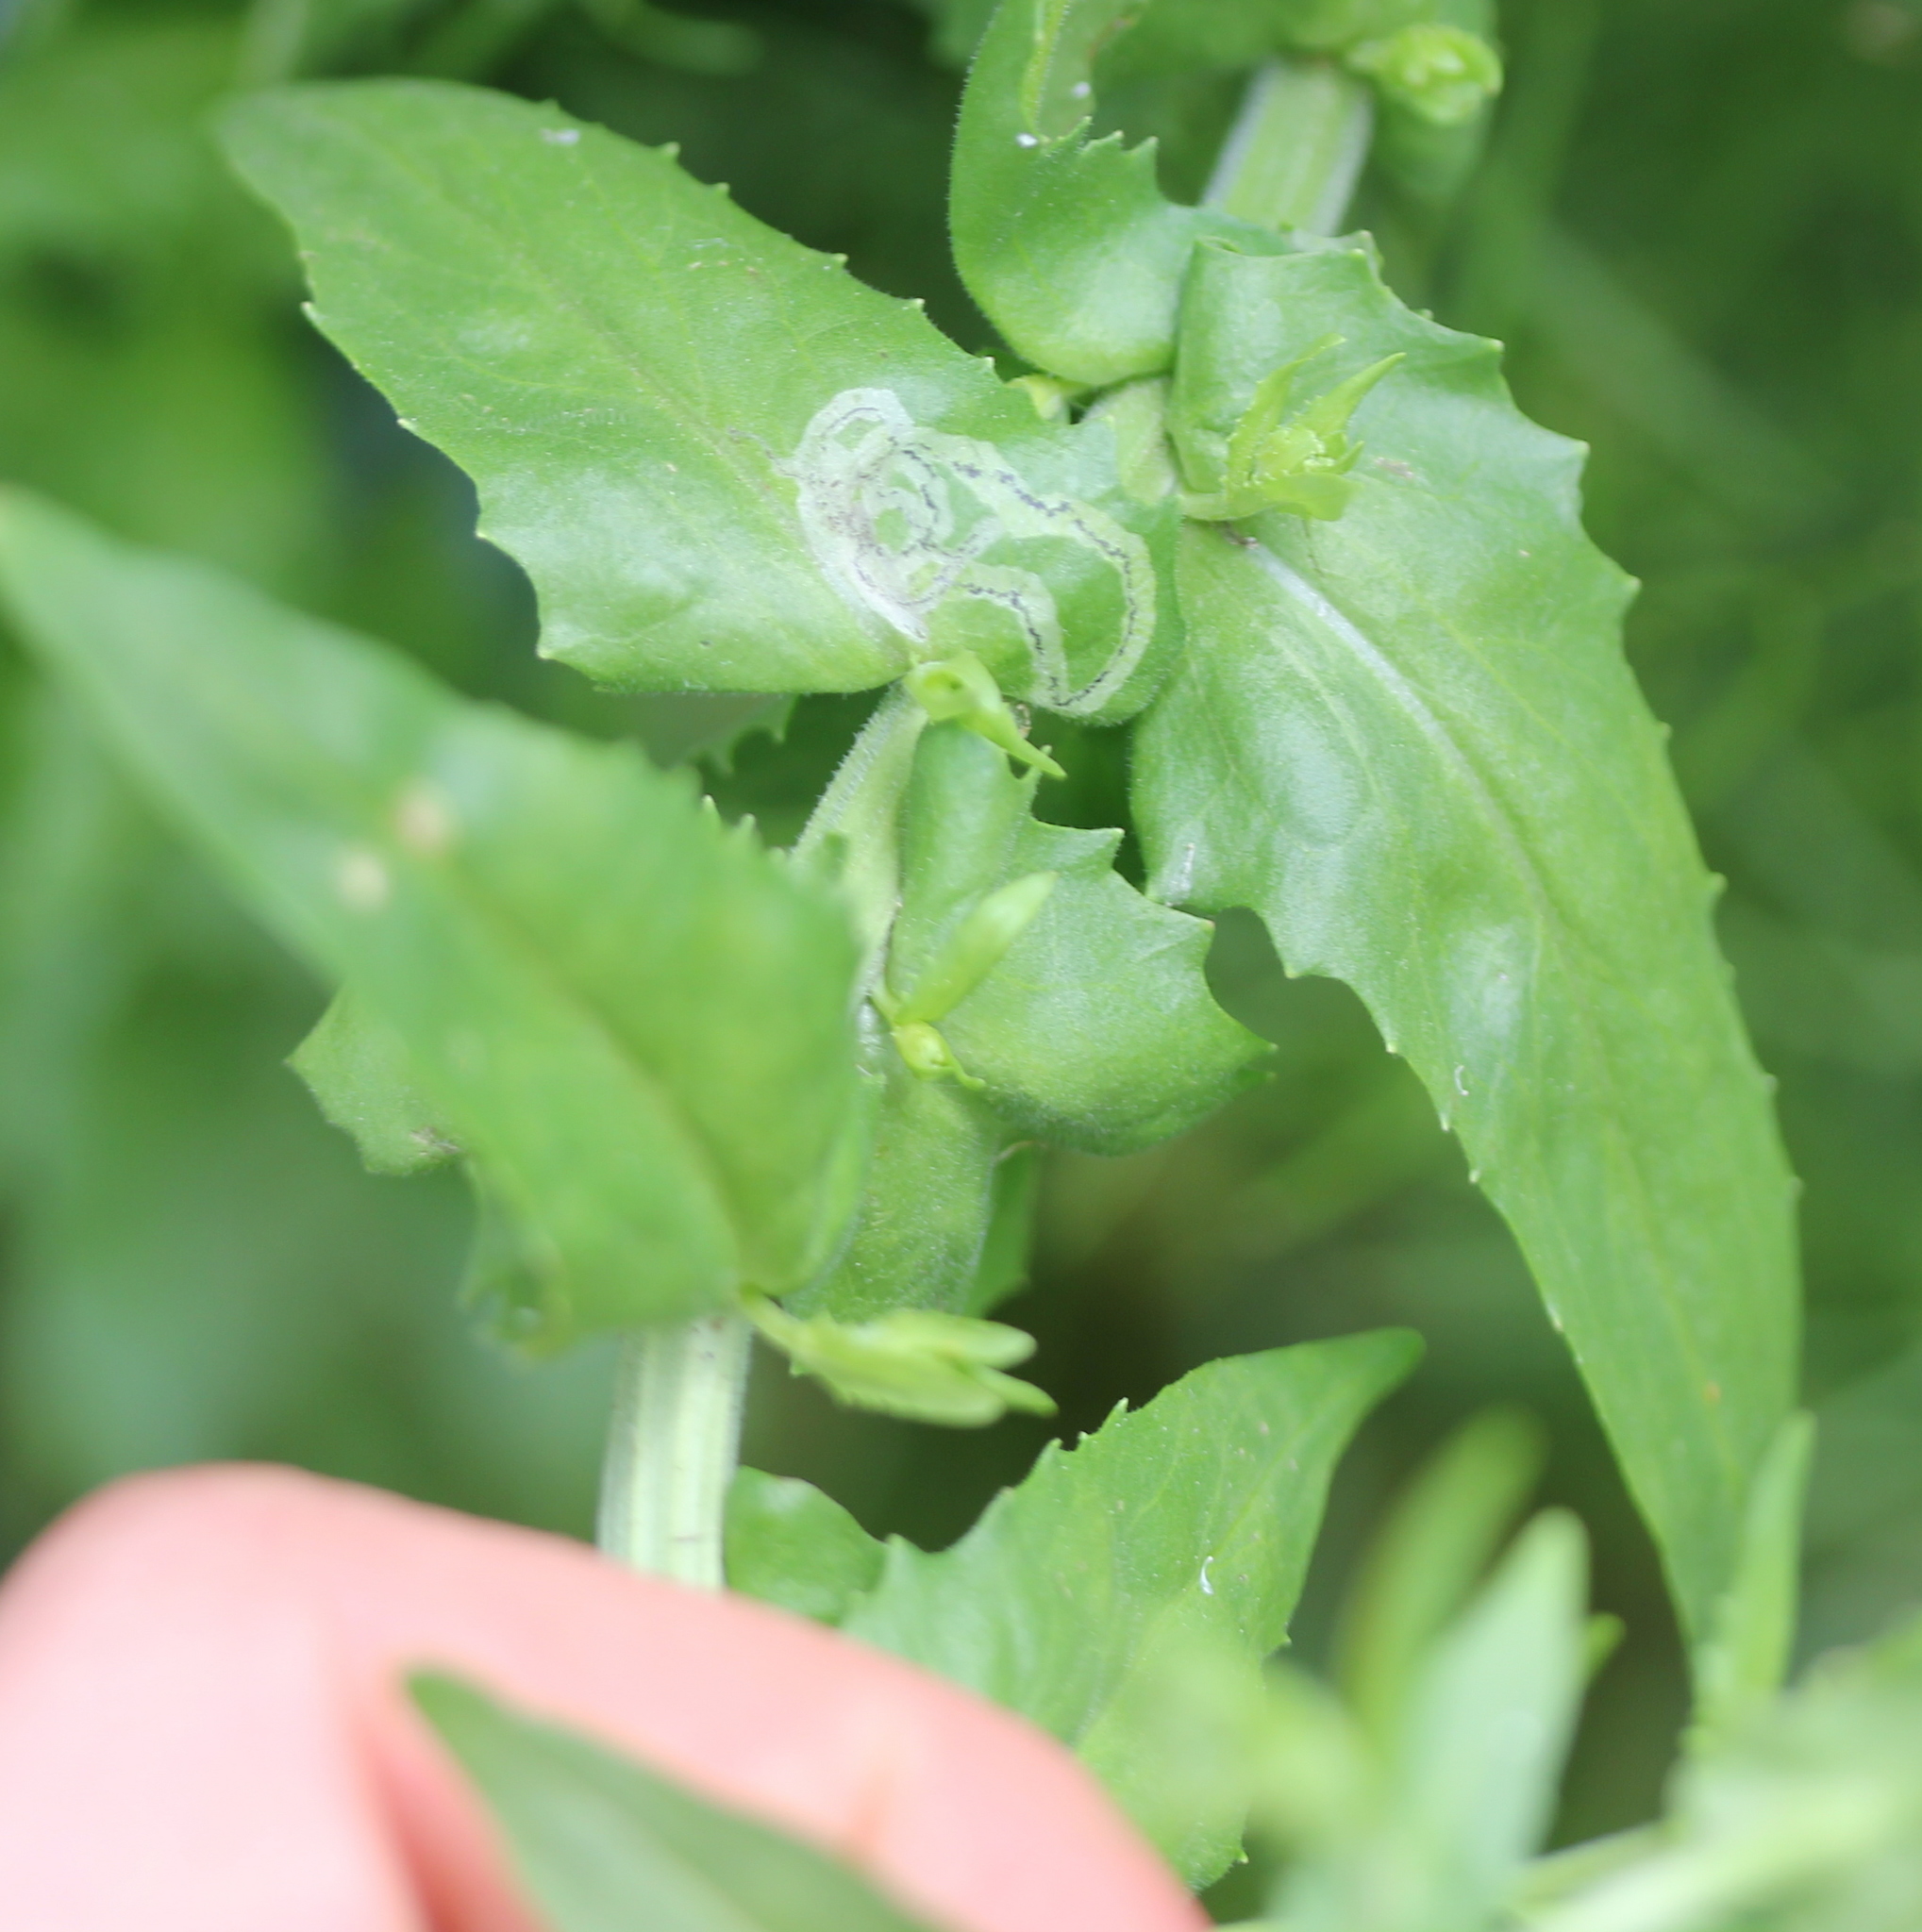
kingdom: Plantae
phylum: Tracheophyta
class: Magnoliopsida
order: Brassicales
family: Brassicaceae
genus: Lepidium
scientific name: Lepidium campestre
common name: Field pepperwort
